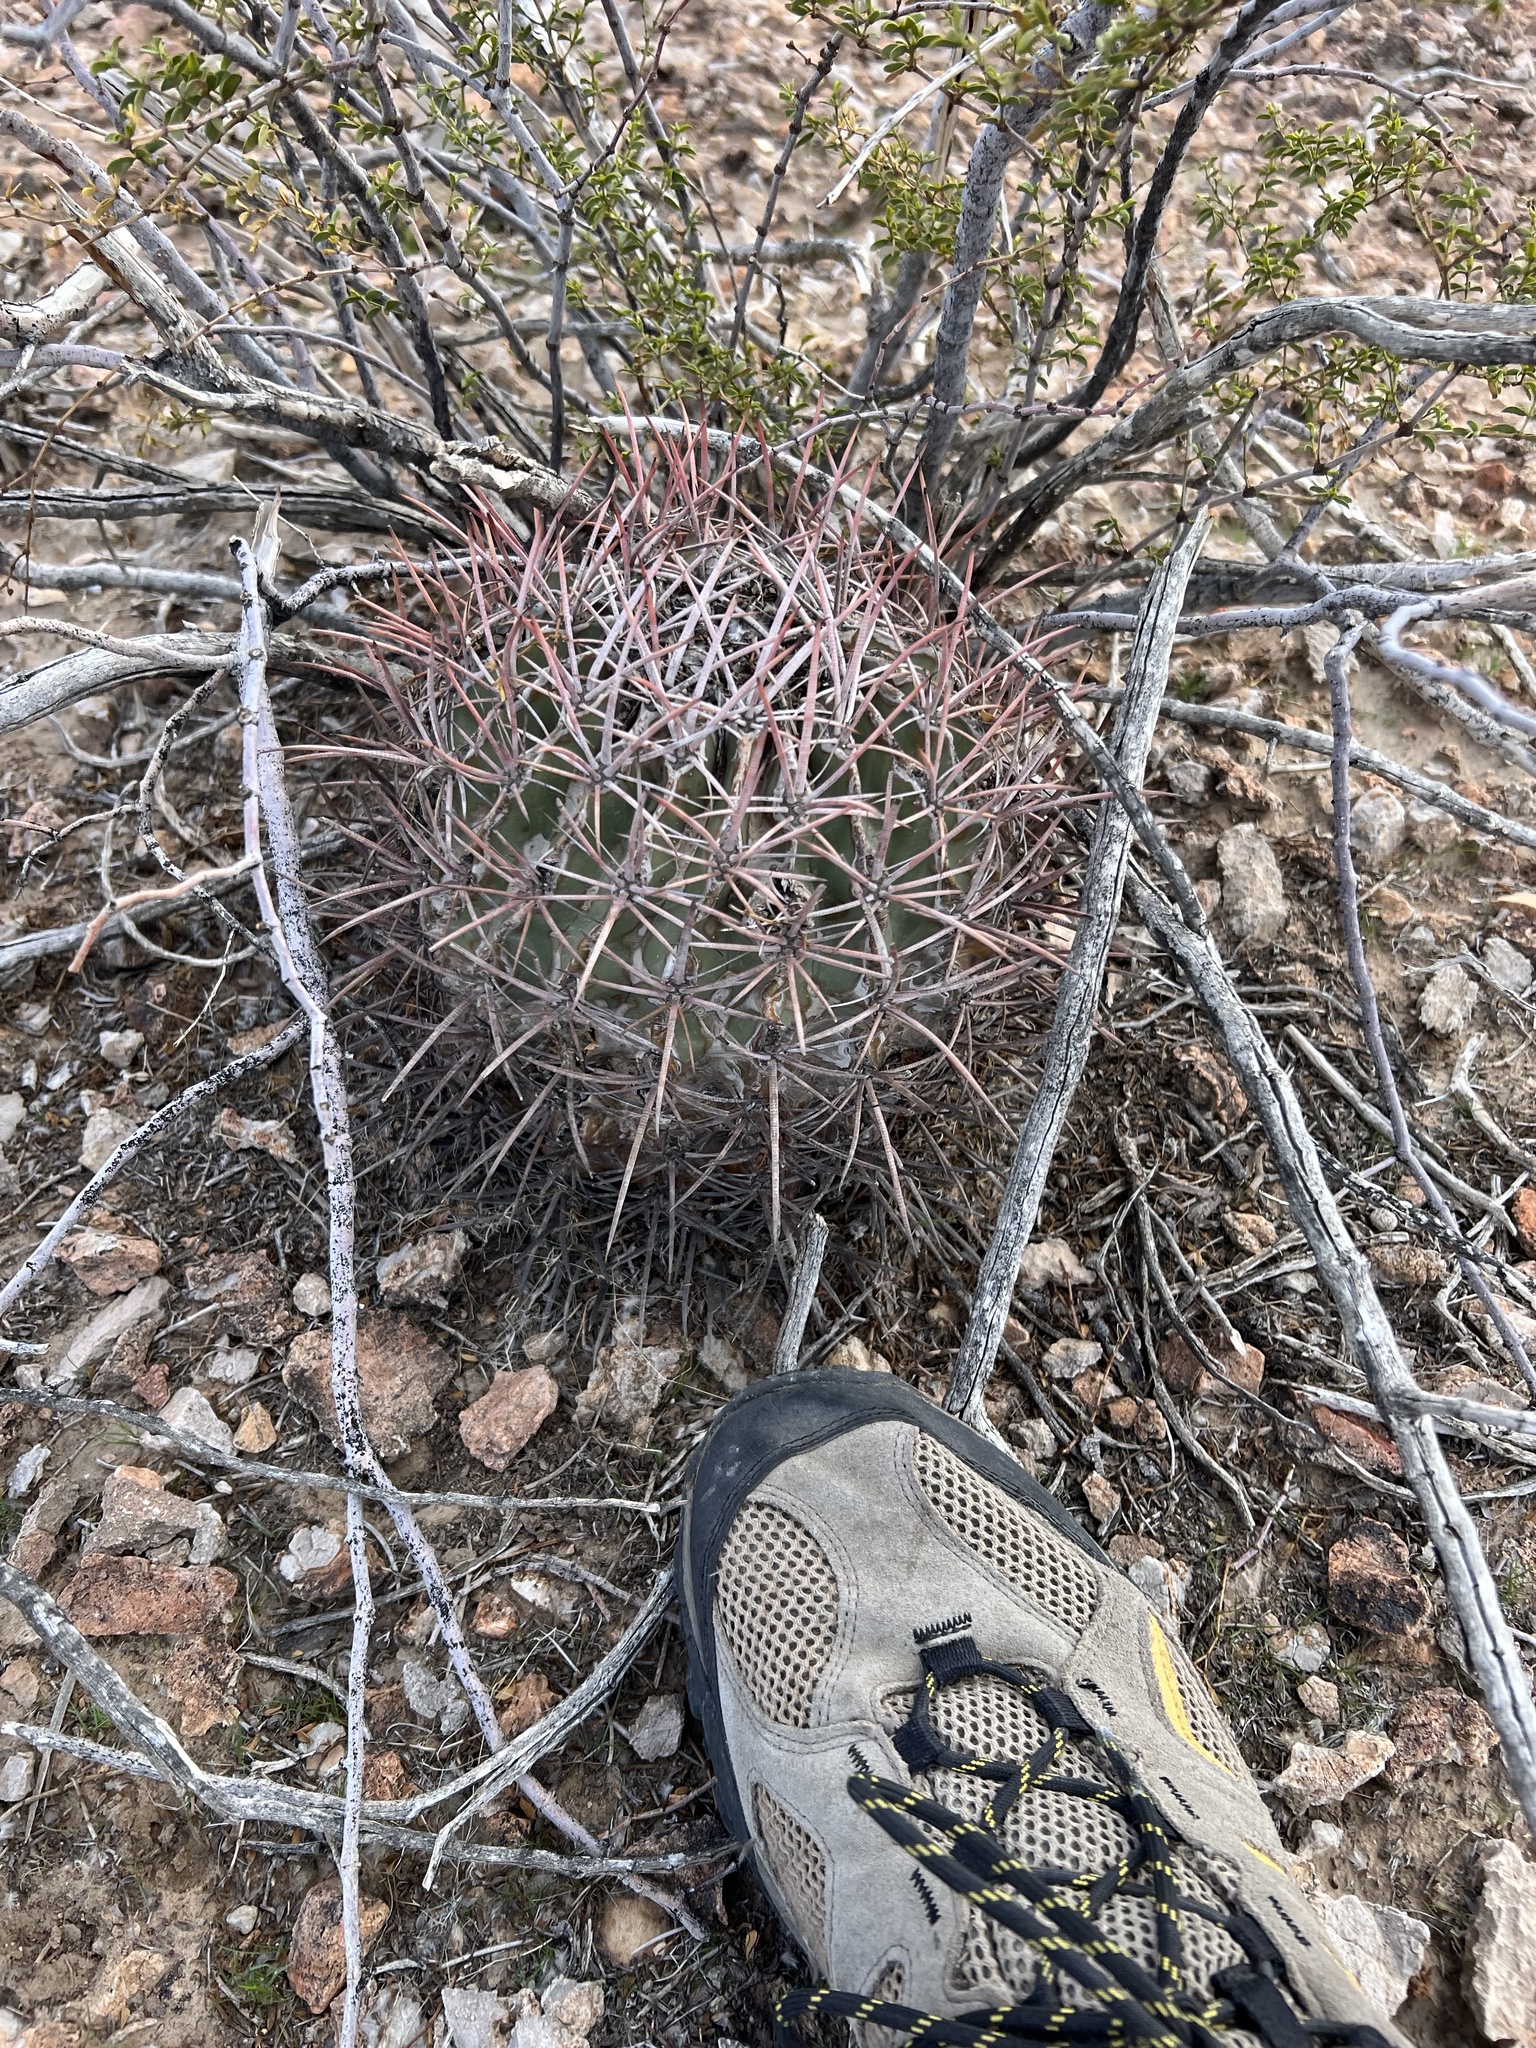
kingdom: Plantae
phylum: Tracheophyta
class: Magnoliopsida
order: Caryophyllales
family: Cactaceae
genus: Echinocactus
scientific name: Echinocactus polycephalus
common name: Cottontop cactus
